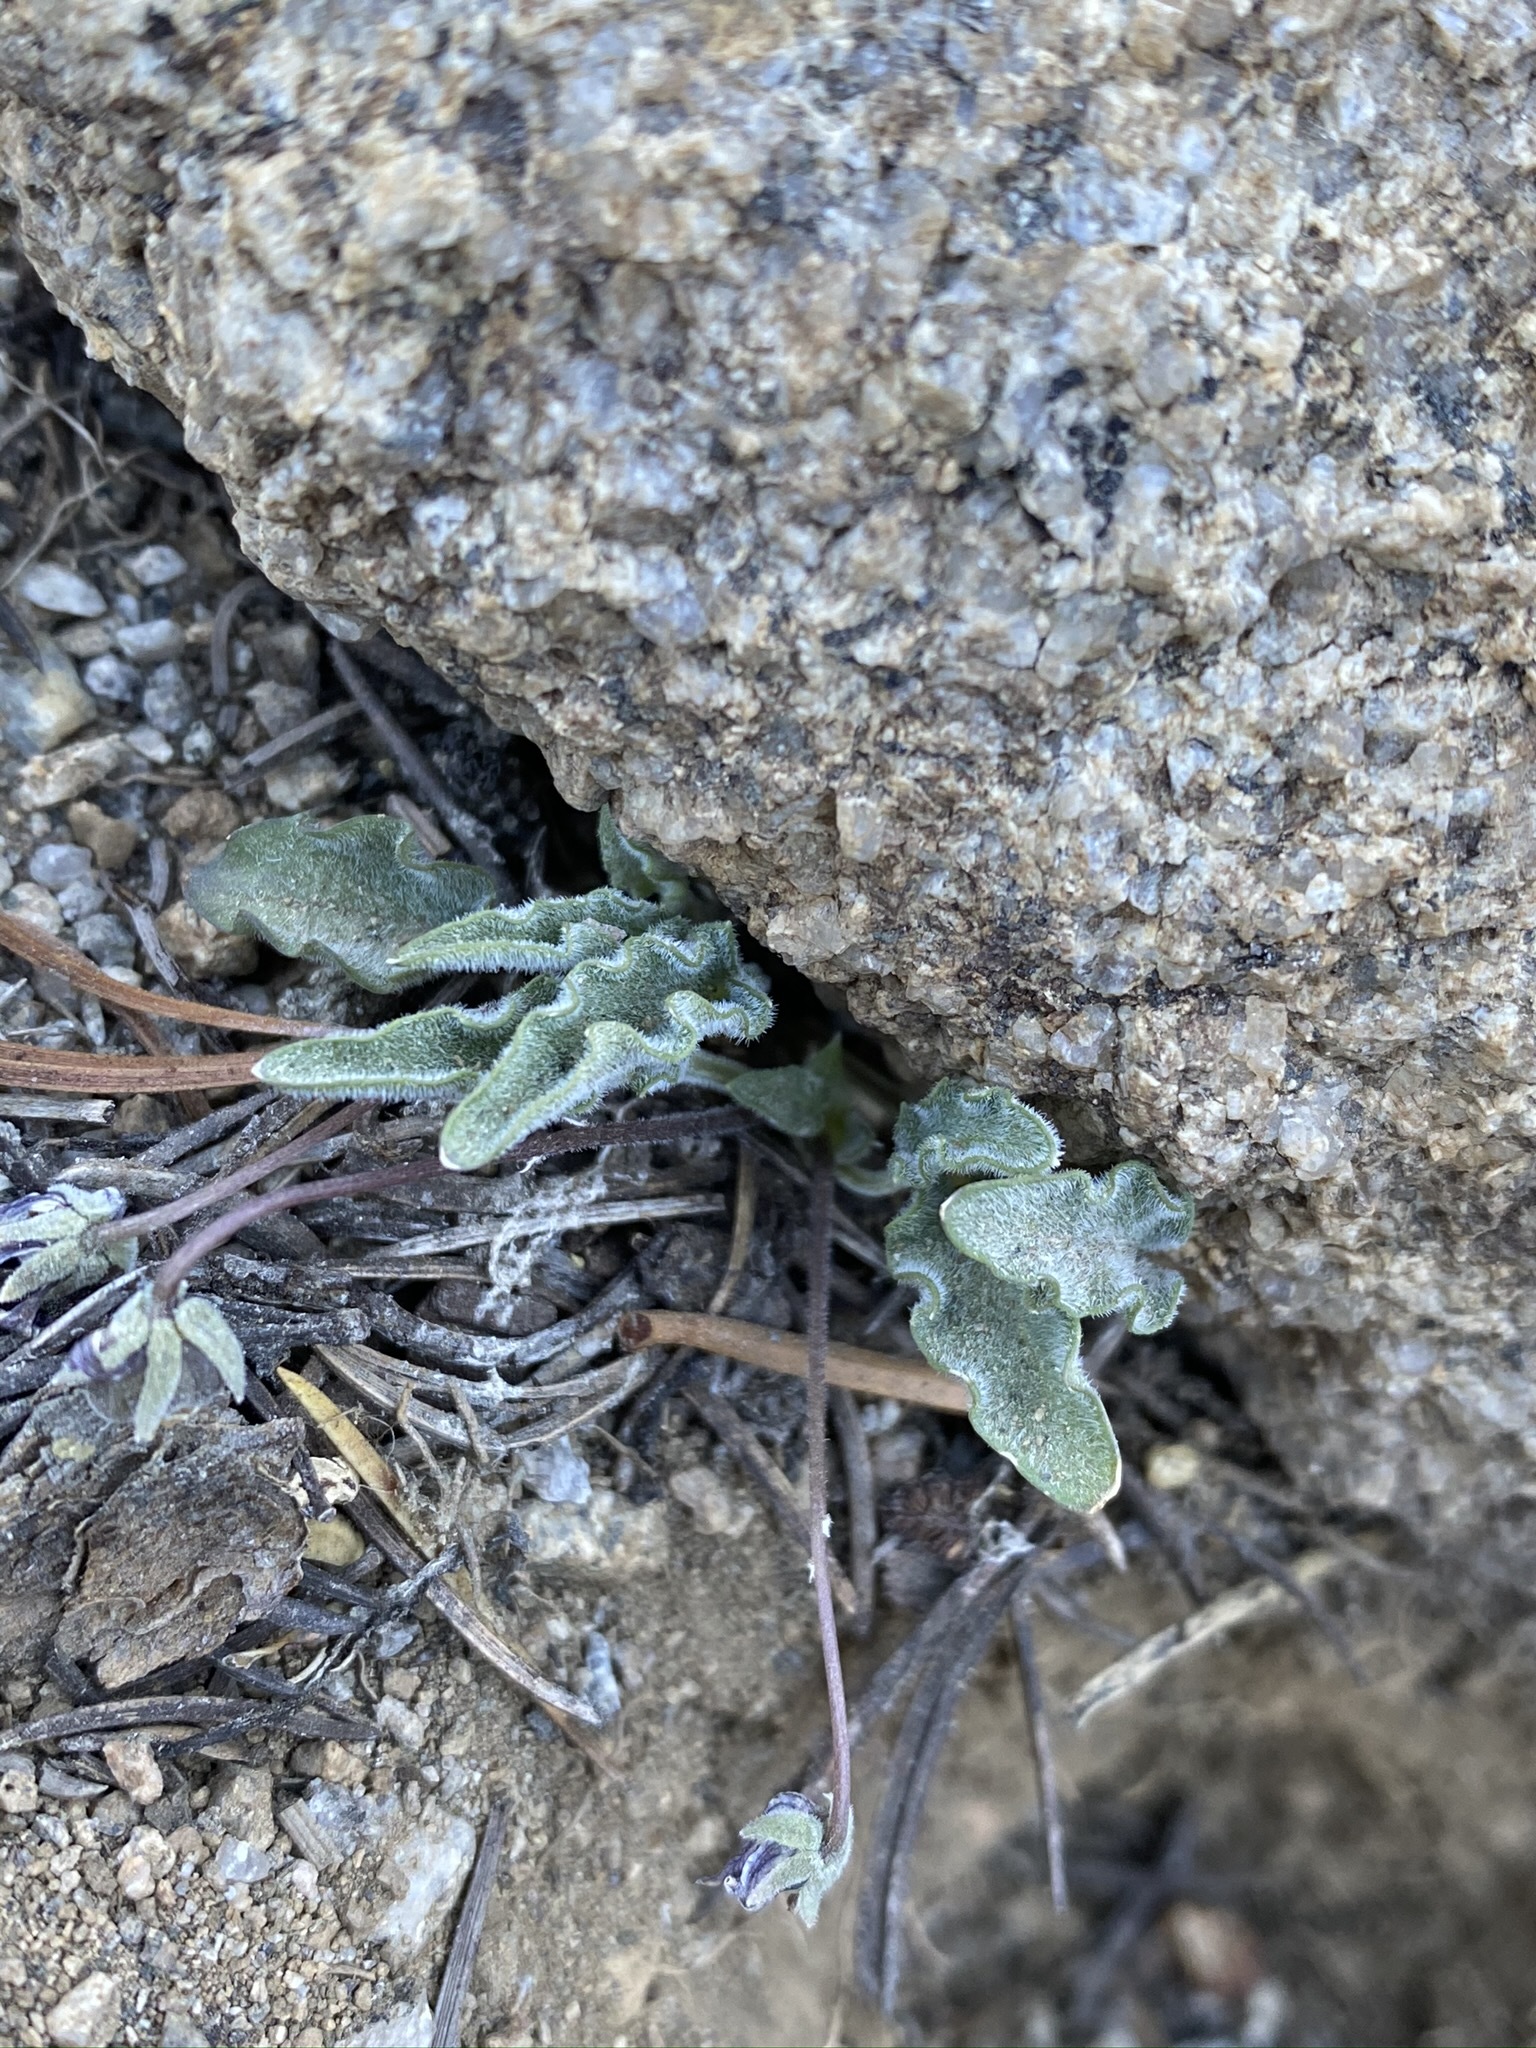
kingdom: Plantae
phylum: Tracheophyta
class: Magnoliopsida
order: Malpighiales
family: Violaceae
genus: Viola
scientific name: Viola pinetorum
